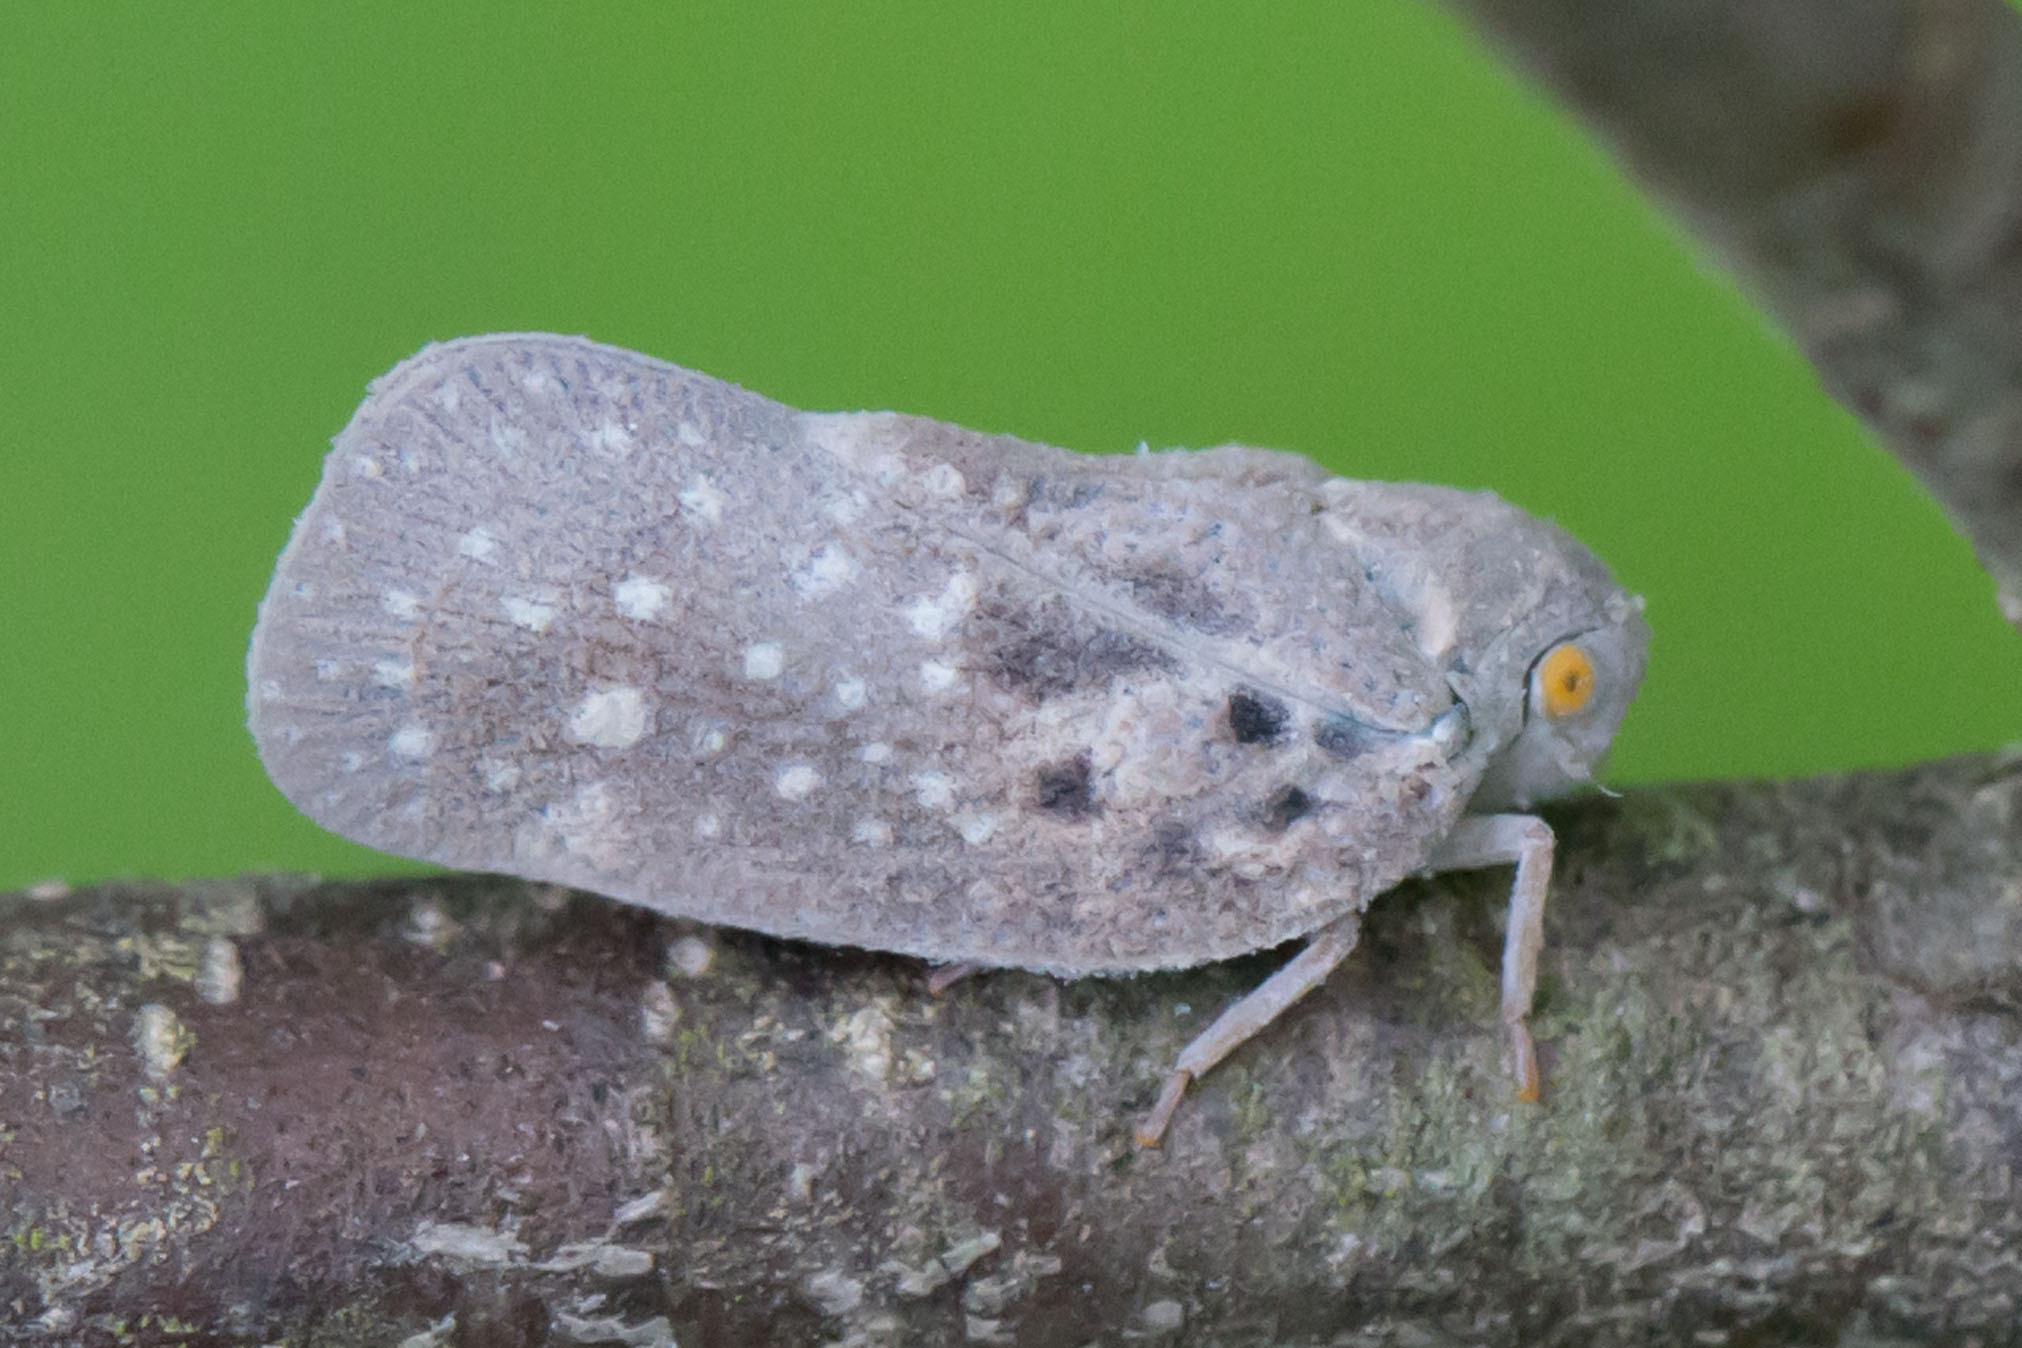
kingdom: Animalia
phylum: Arthropoda
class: Insecta
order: Hemiptera
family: Flatidae
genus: Metcalfa
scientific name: Metcalfa pruinosa
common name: Citrus flatid planthopper
